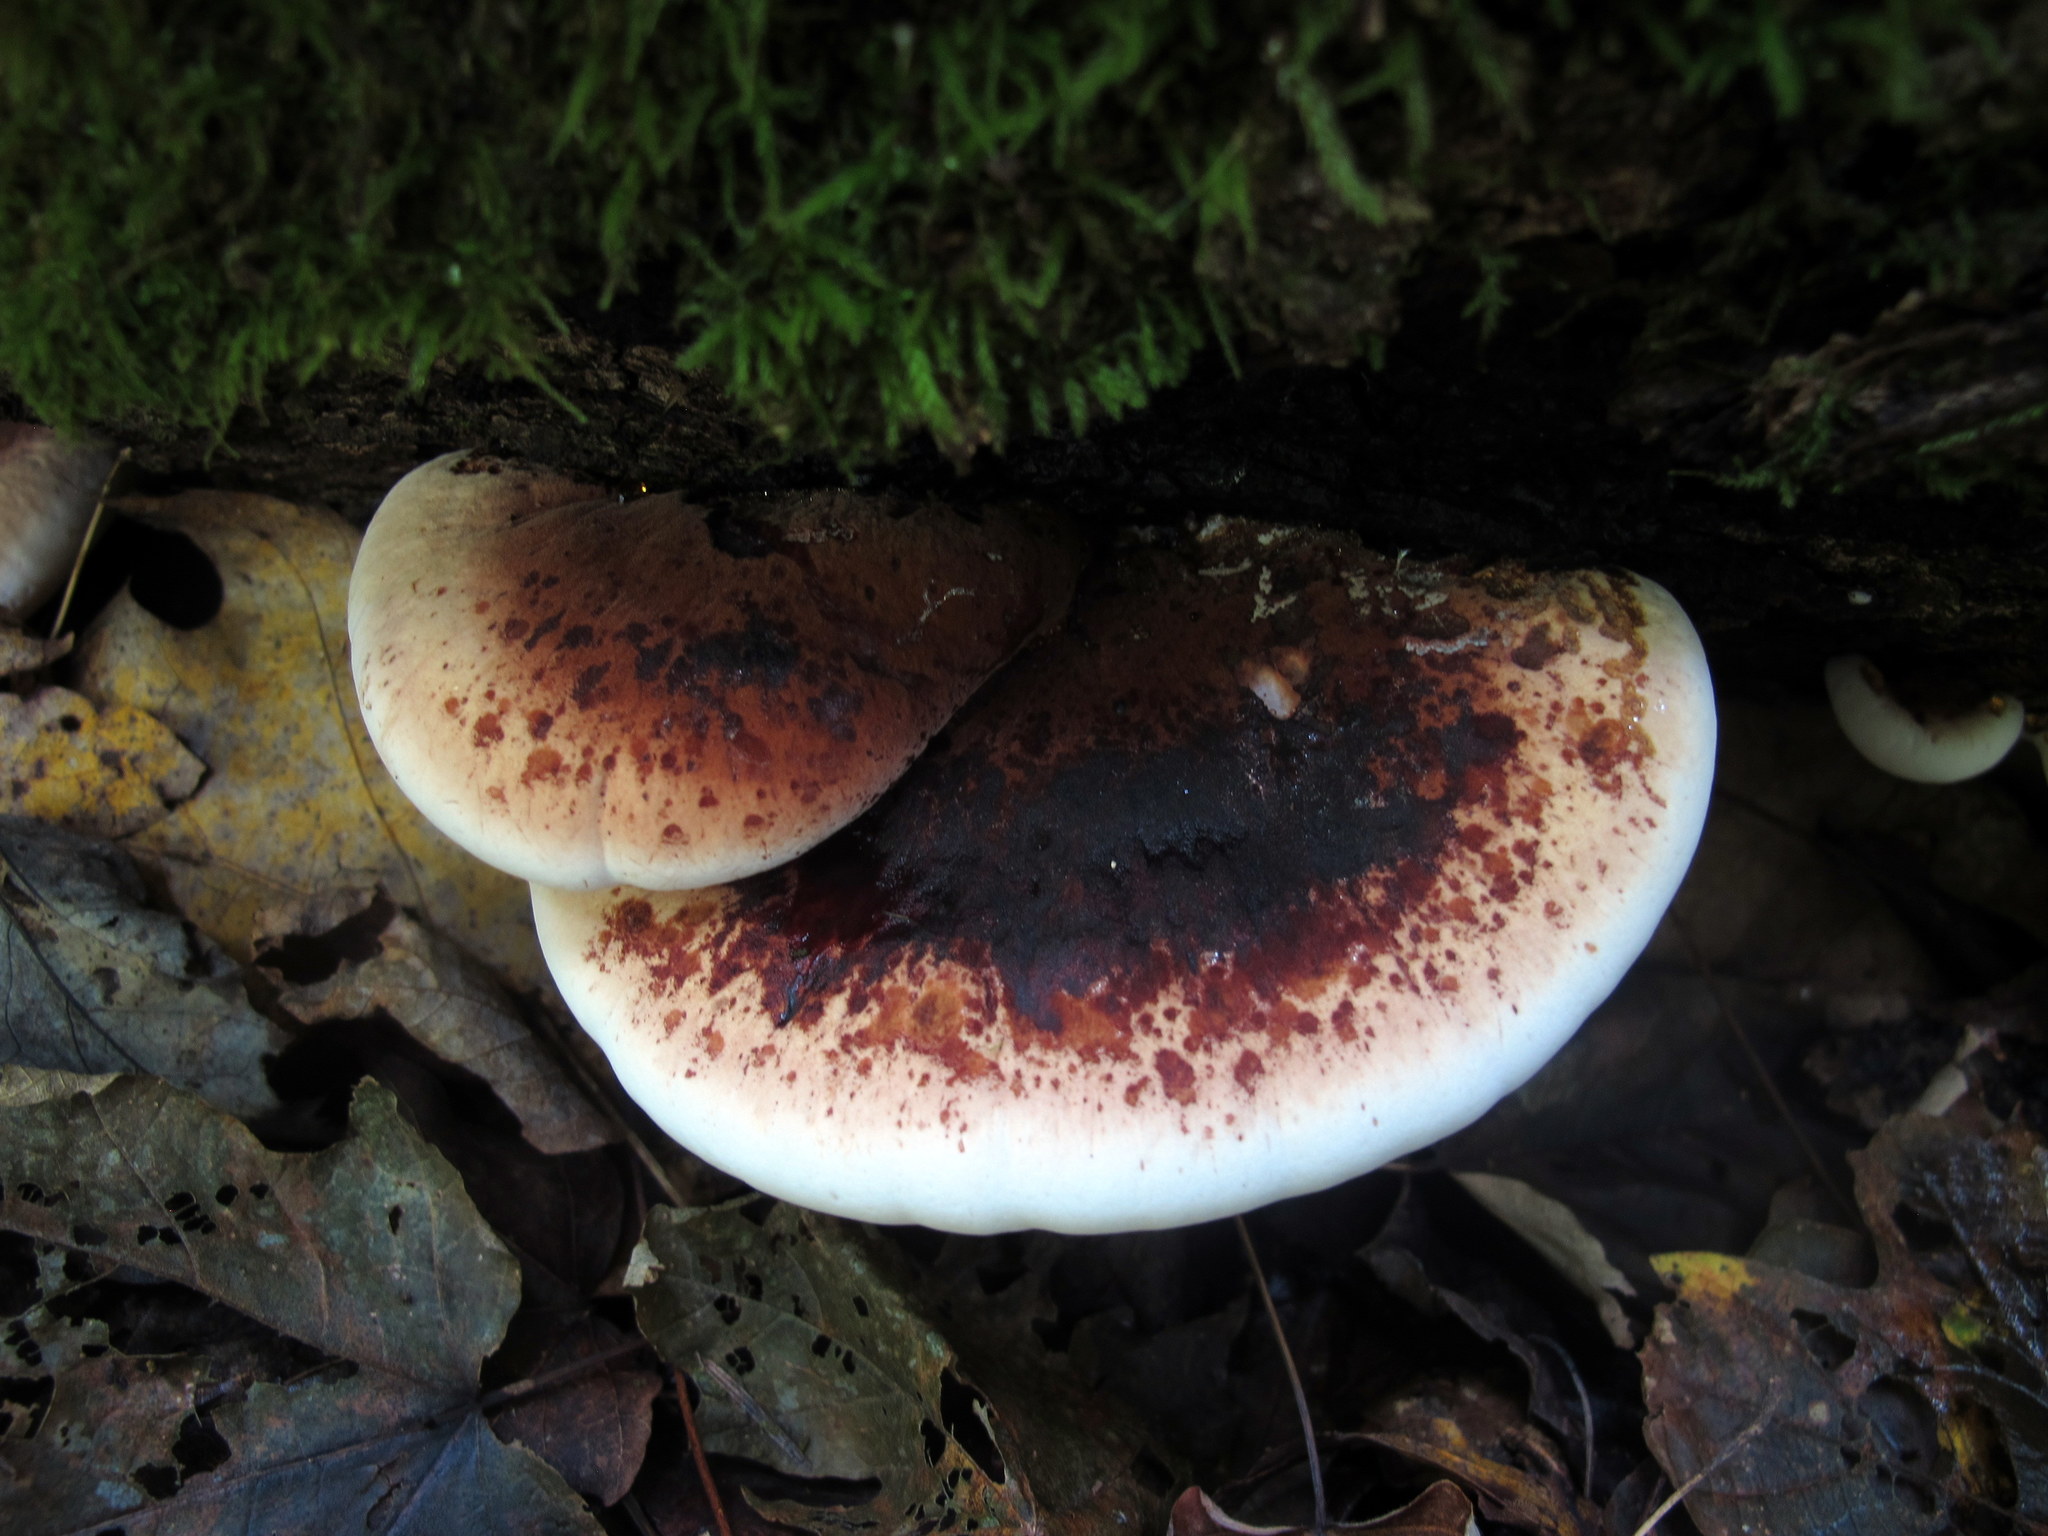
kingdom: Fungi
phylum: Basidiomycota
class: Agaricomycetes
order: Polyporales
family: Ischnodermataceae
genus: Ischnoderma
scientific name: Ischnoderma resinosum
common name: Resinous polypore
